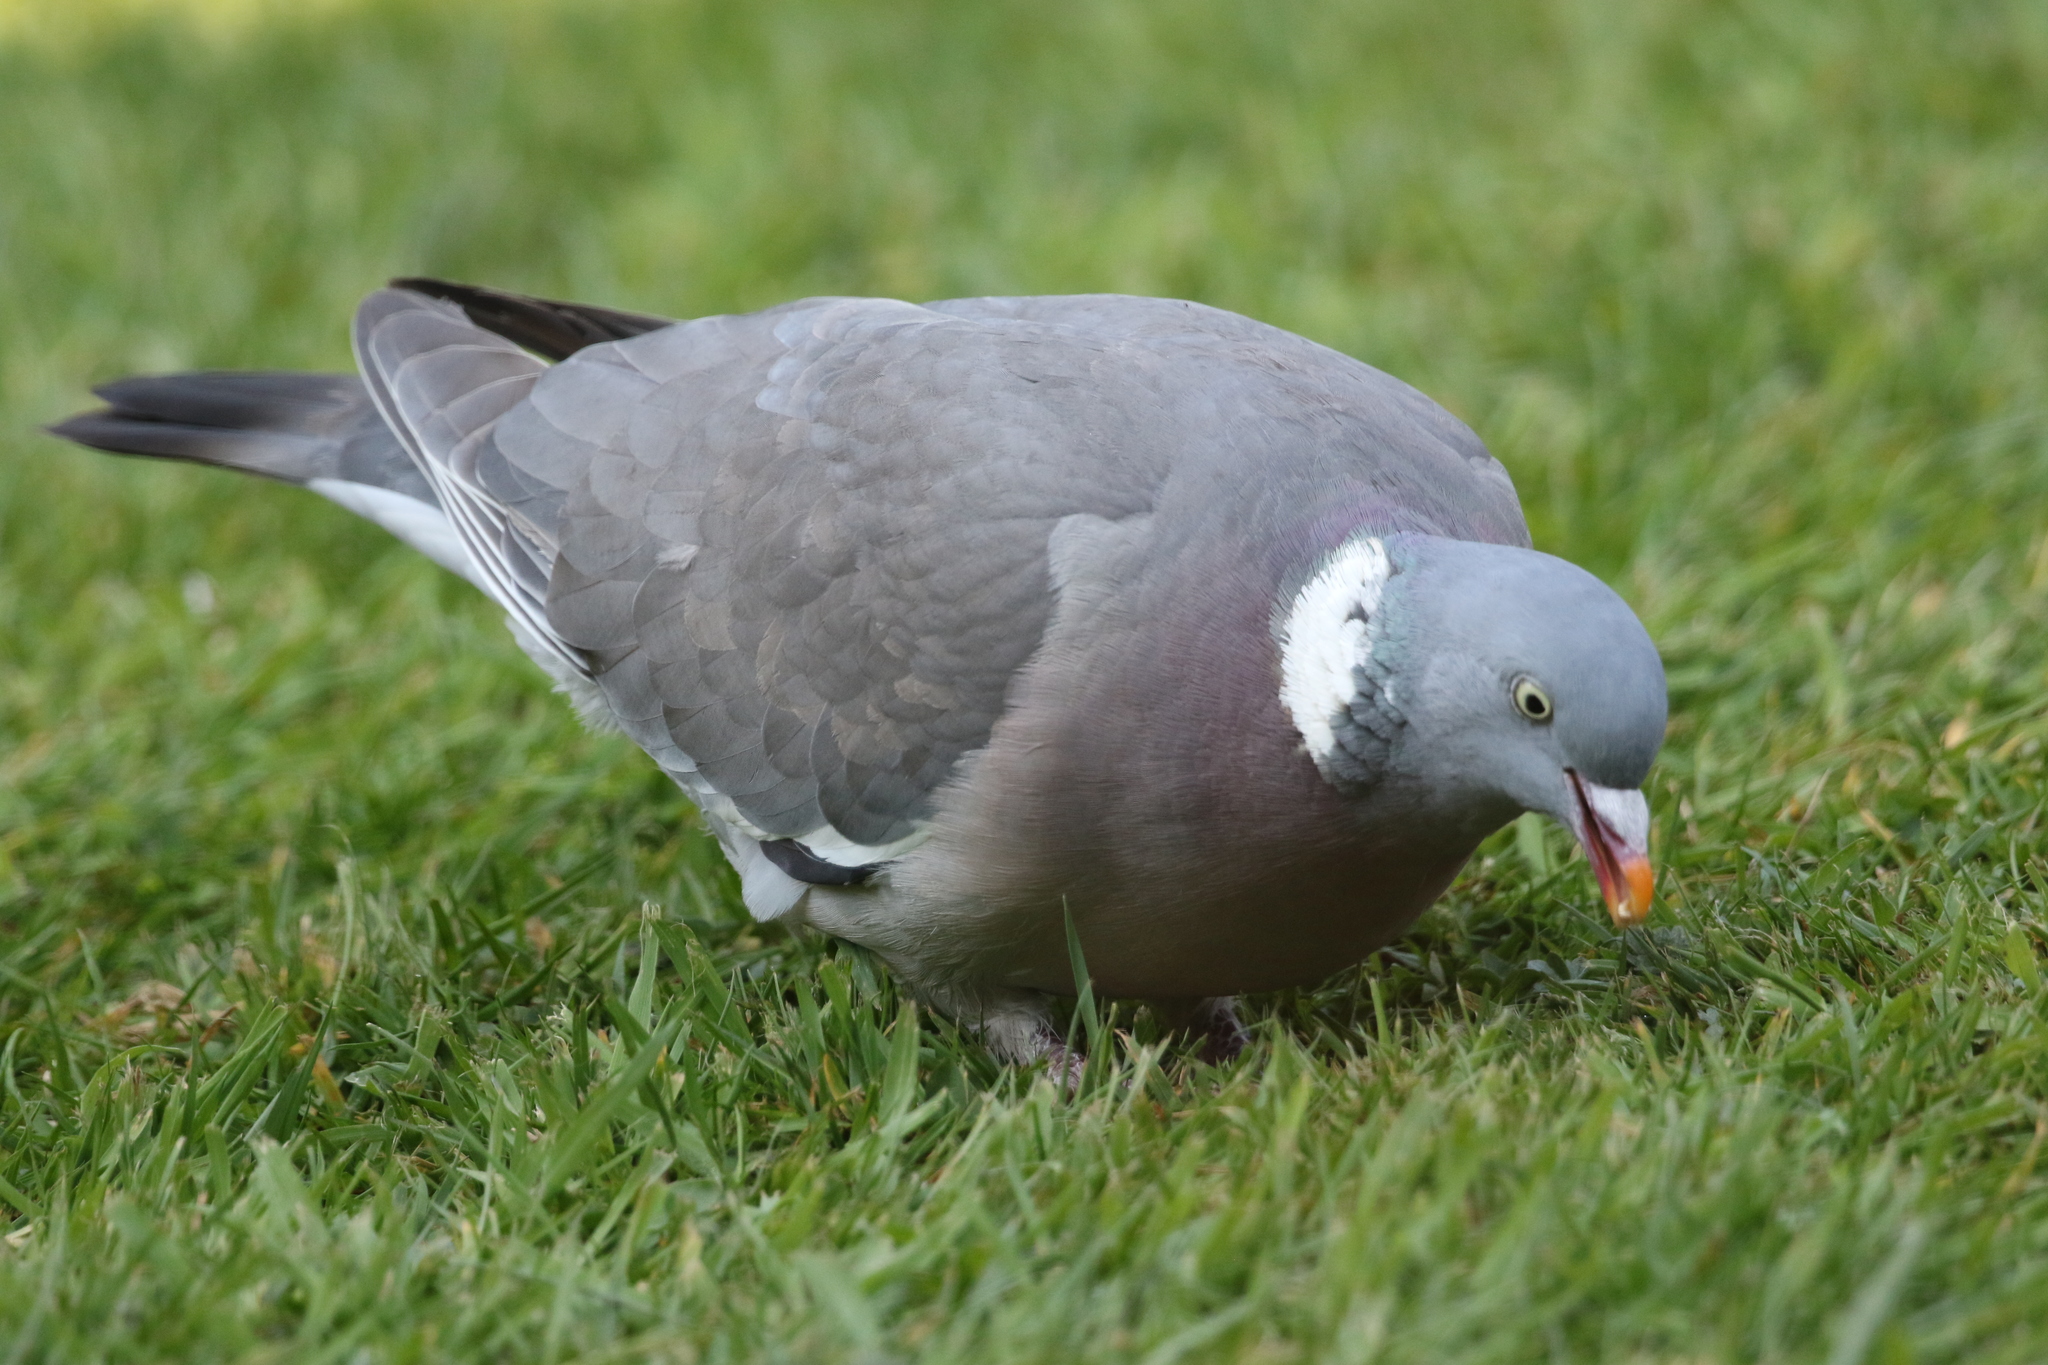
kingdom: Animalia
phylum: Chordata
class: Aves
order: Columbiformes
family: Columbidae
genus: Columba
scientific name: Columba palumbus
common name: Common wood pigeon
